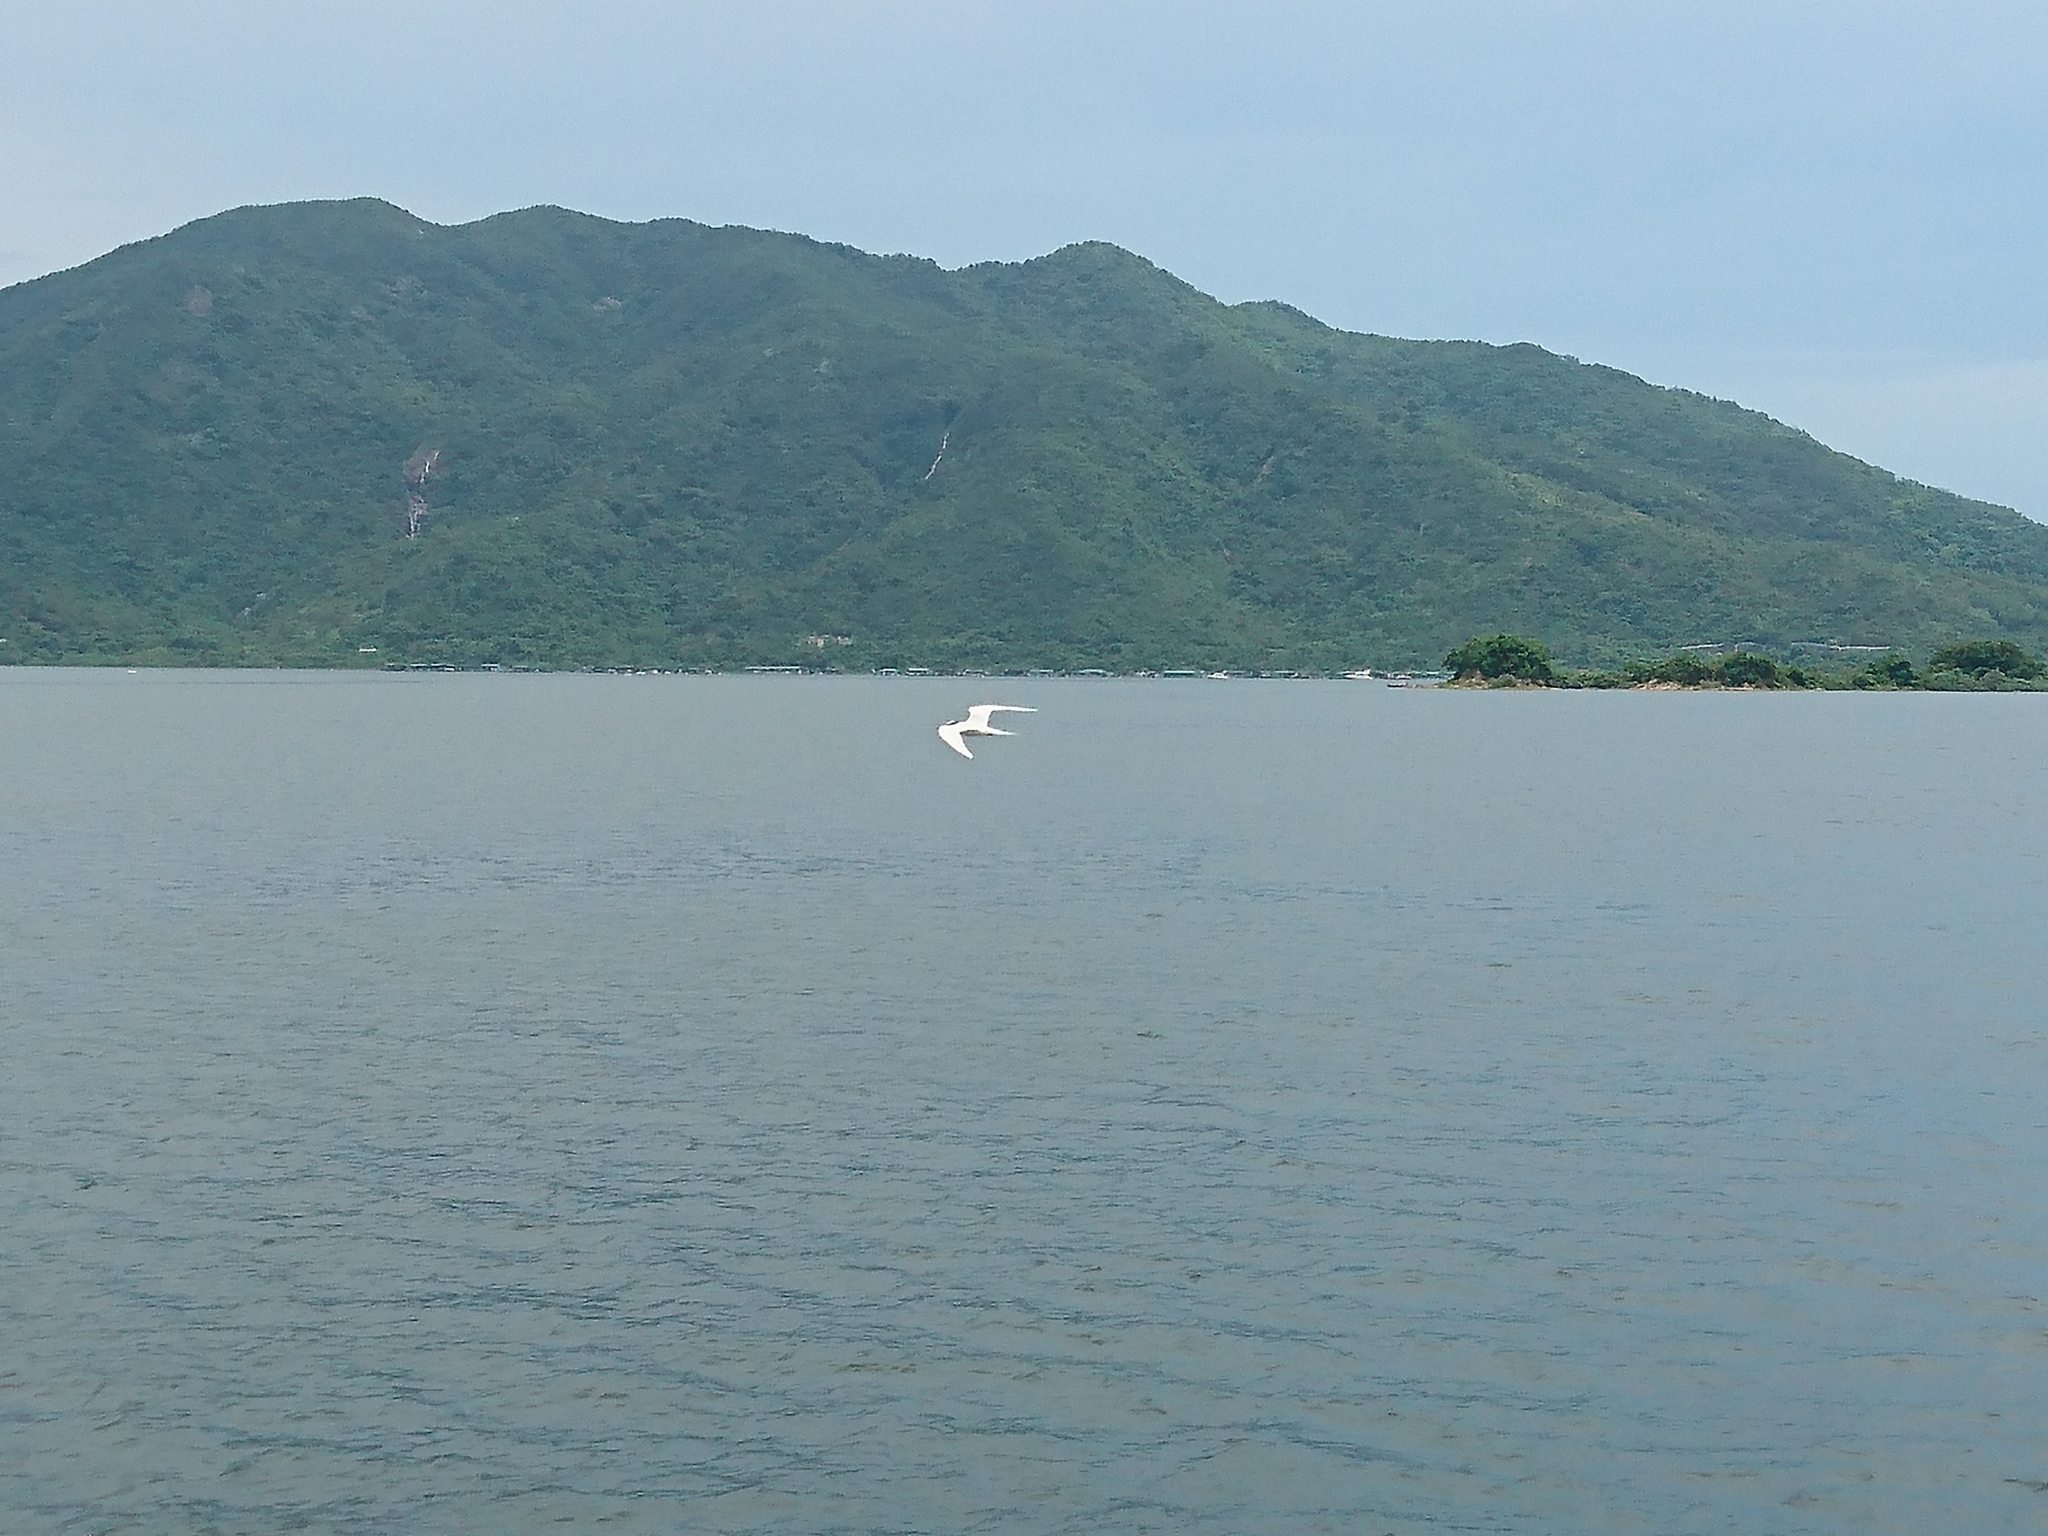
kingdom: Animalia
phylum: Chordata
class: Aves
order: Charadriiformes
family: Laridae
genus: Sterna
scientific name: Sterna sumatrana
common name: Black-naped tern
